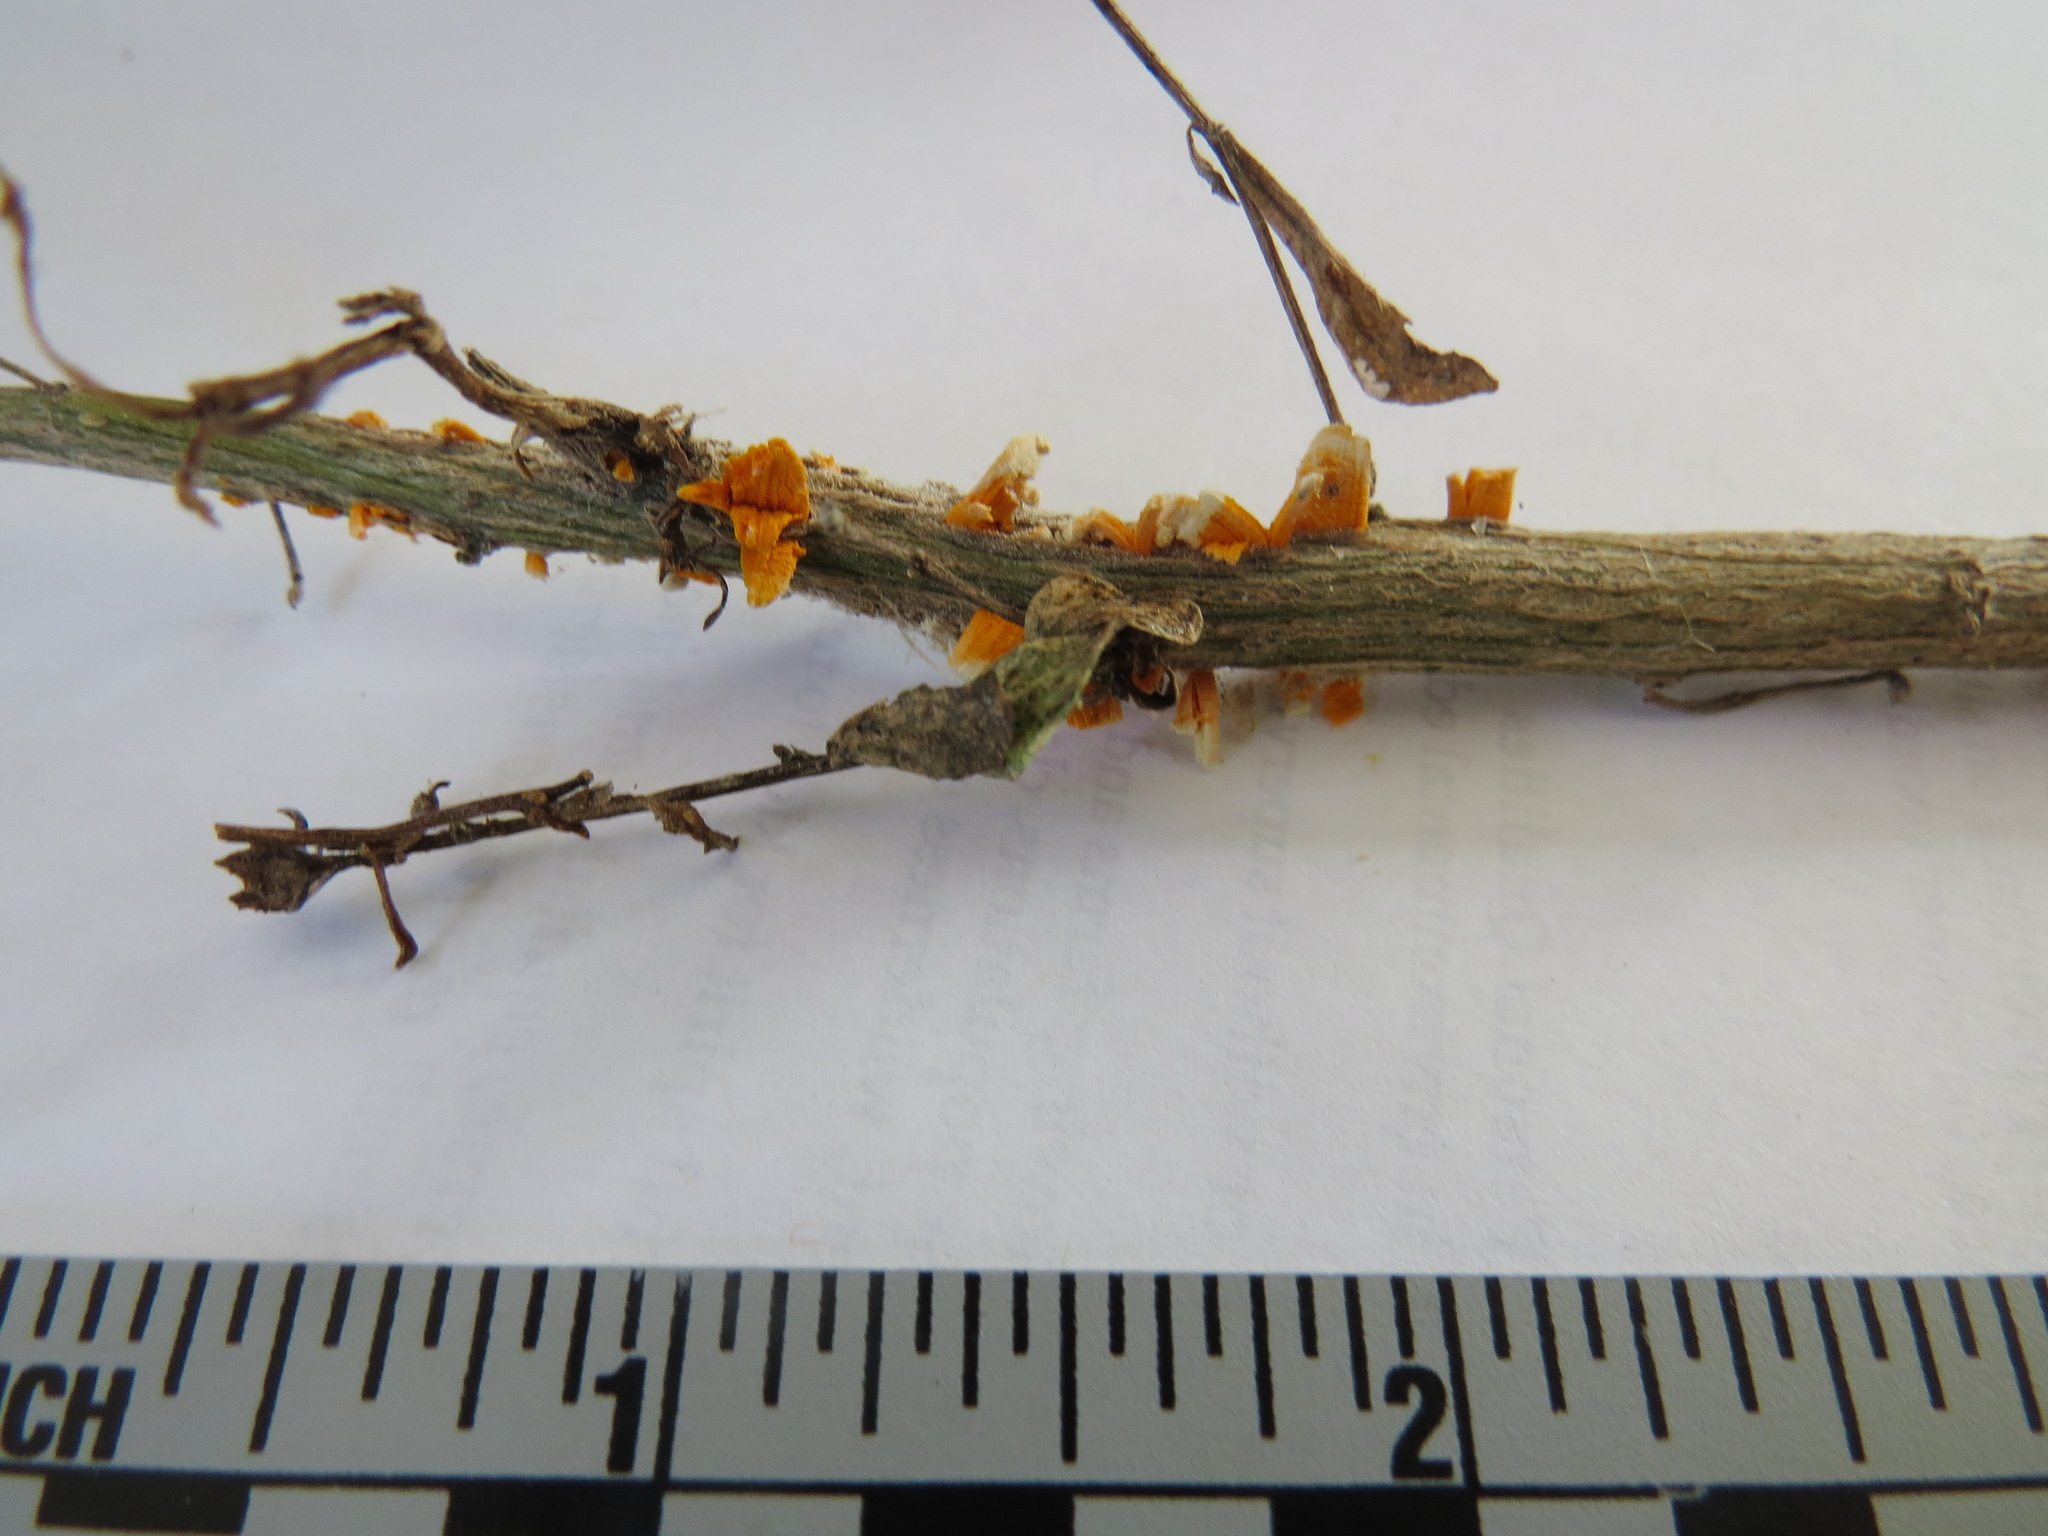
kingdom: Fungi
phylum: Basidiomycota
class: Pucciniomycetes
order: Pucciniales
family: Pucciniaceae
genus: Eriosporangium
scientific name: Eriosporangium evadens
